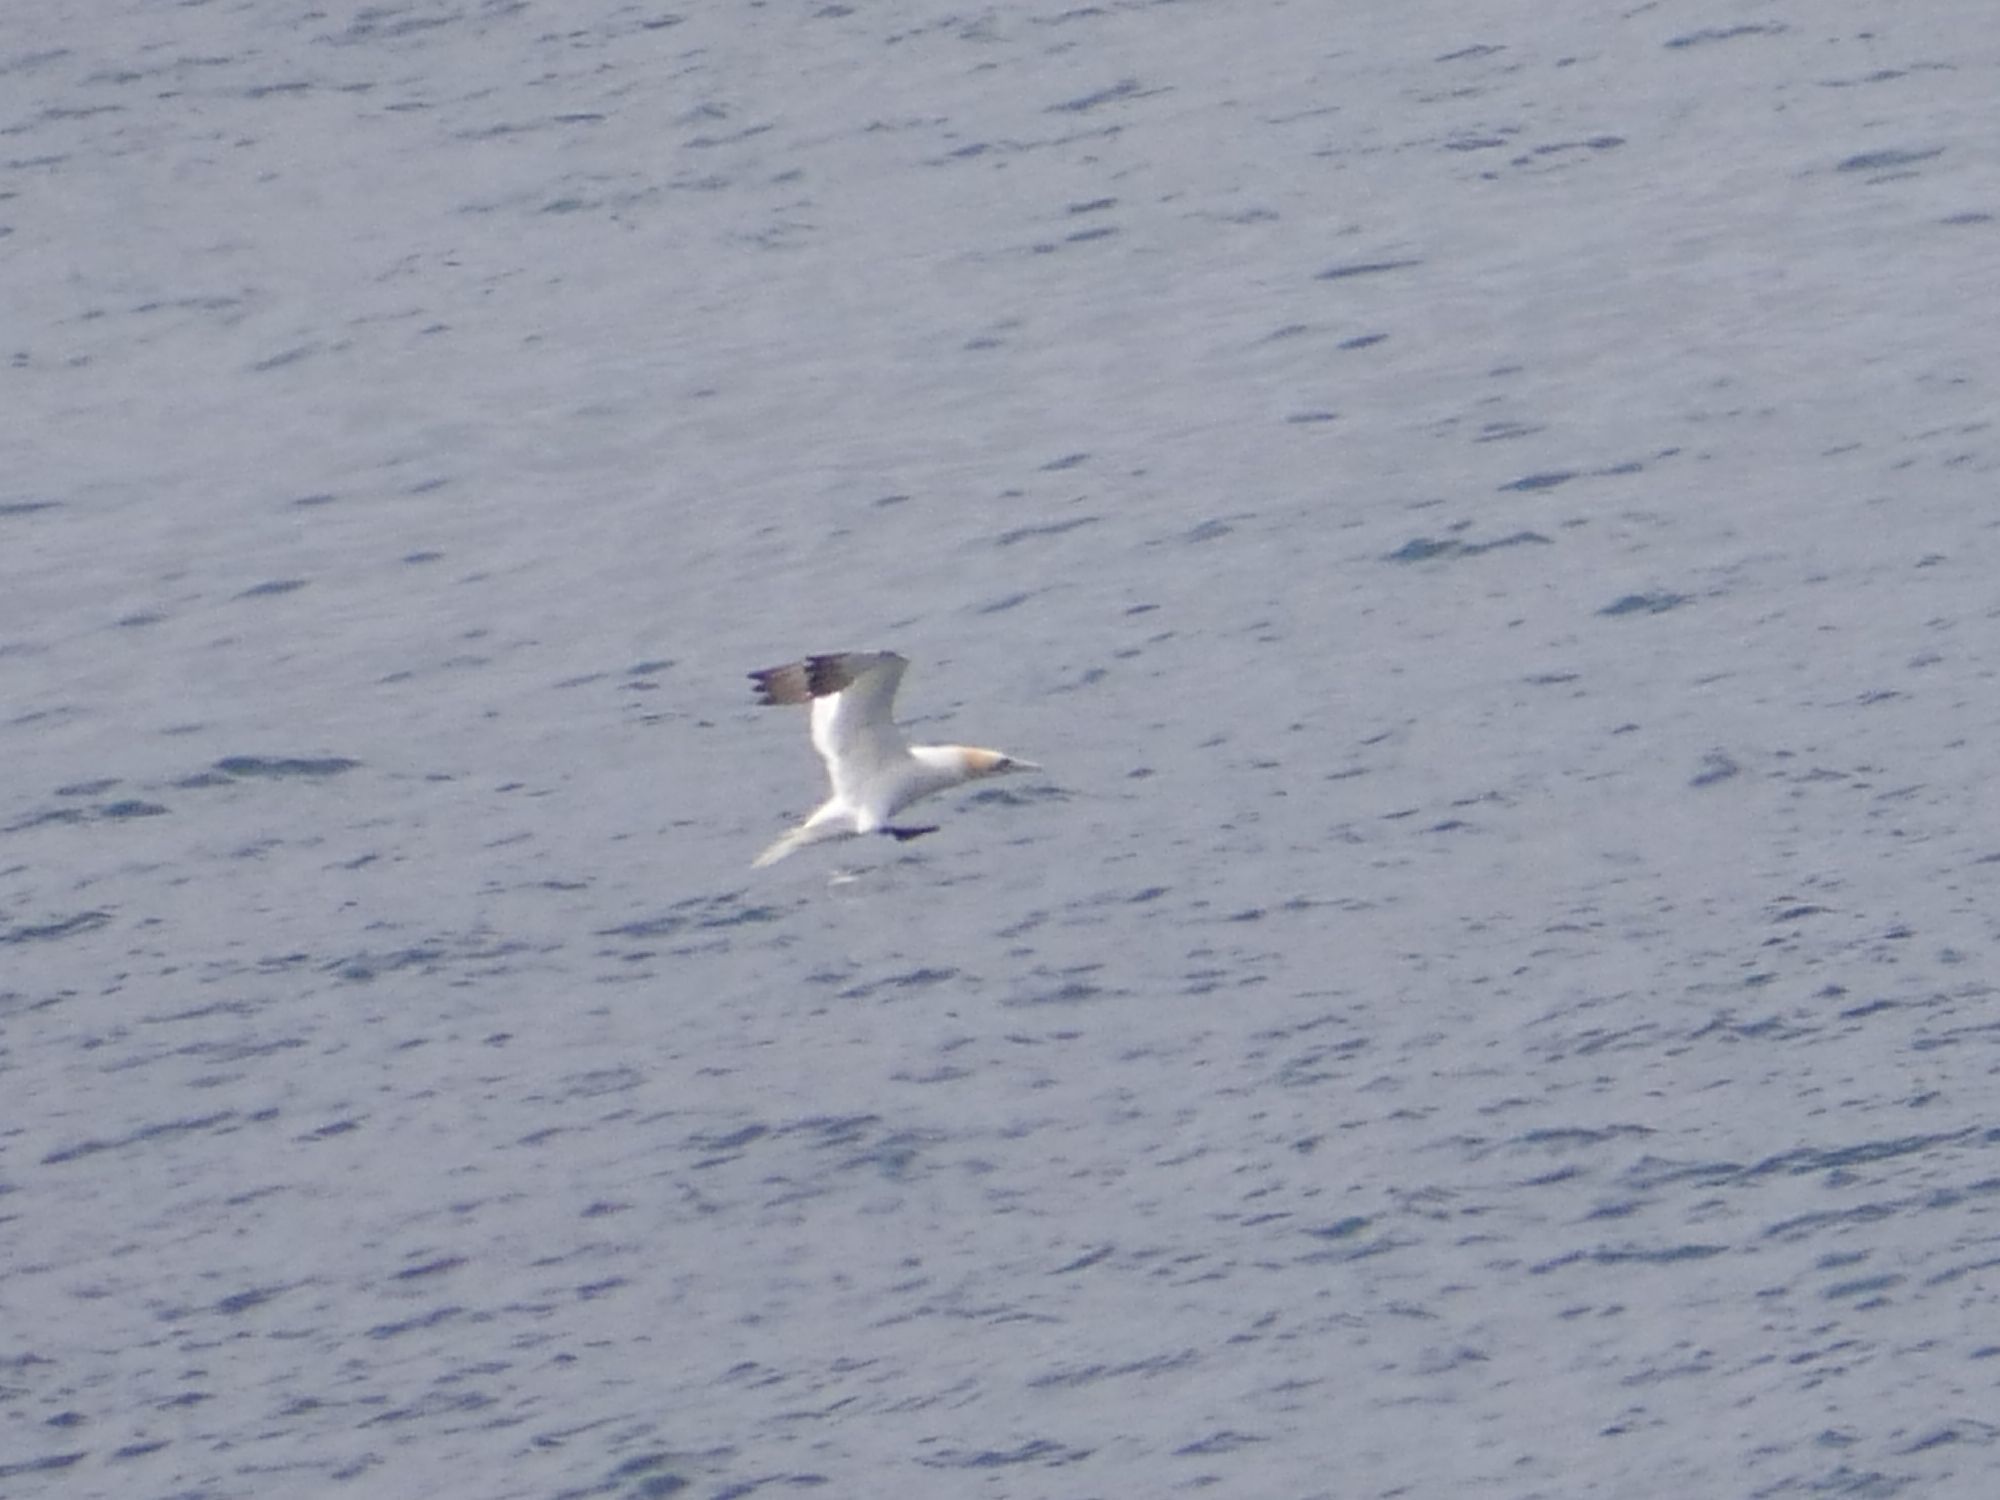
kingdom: Animalia
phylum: Chordata
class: Aves
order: Suliformes
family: Sulidae
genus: Morus
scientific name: Morus bassanus
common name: Northern gannet
